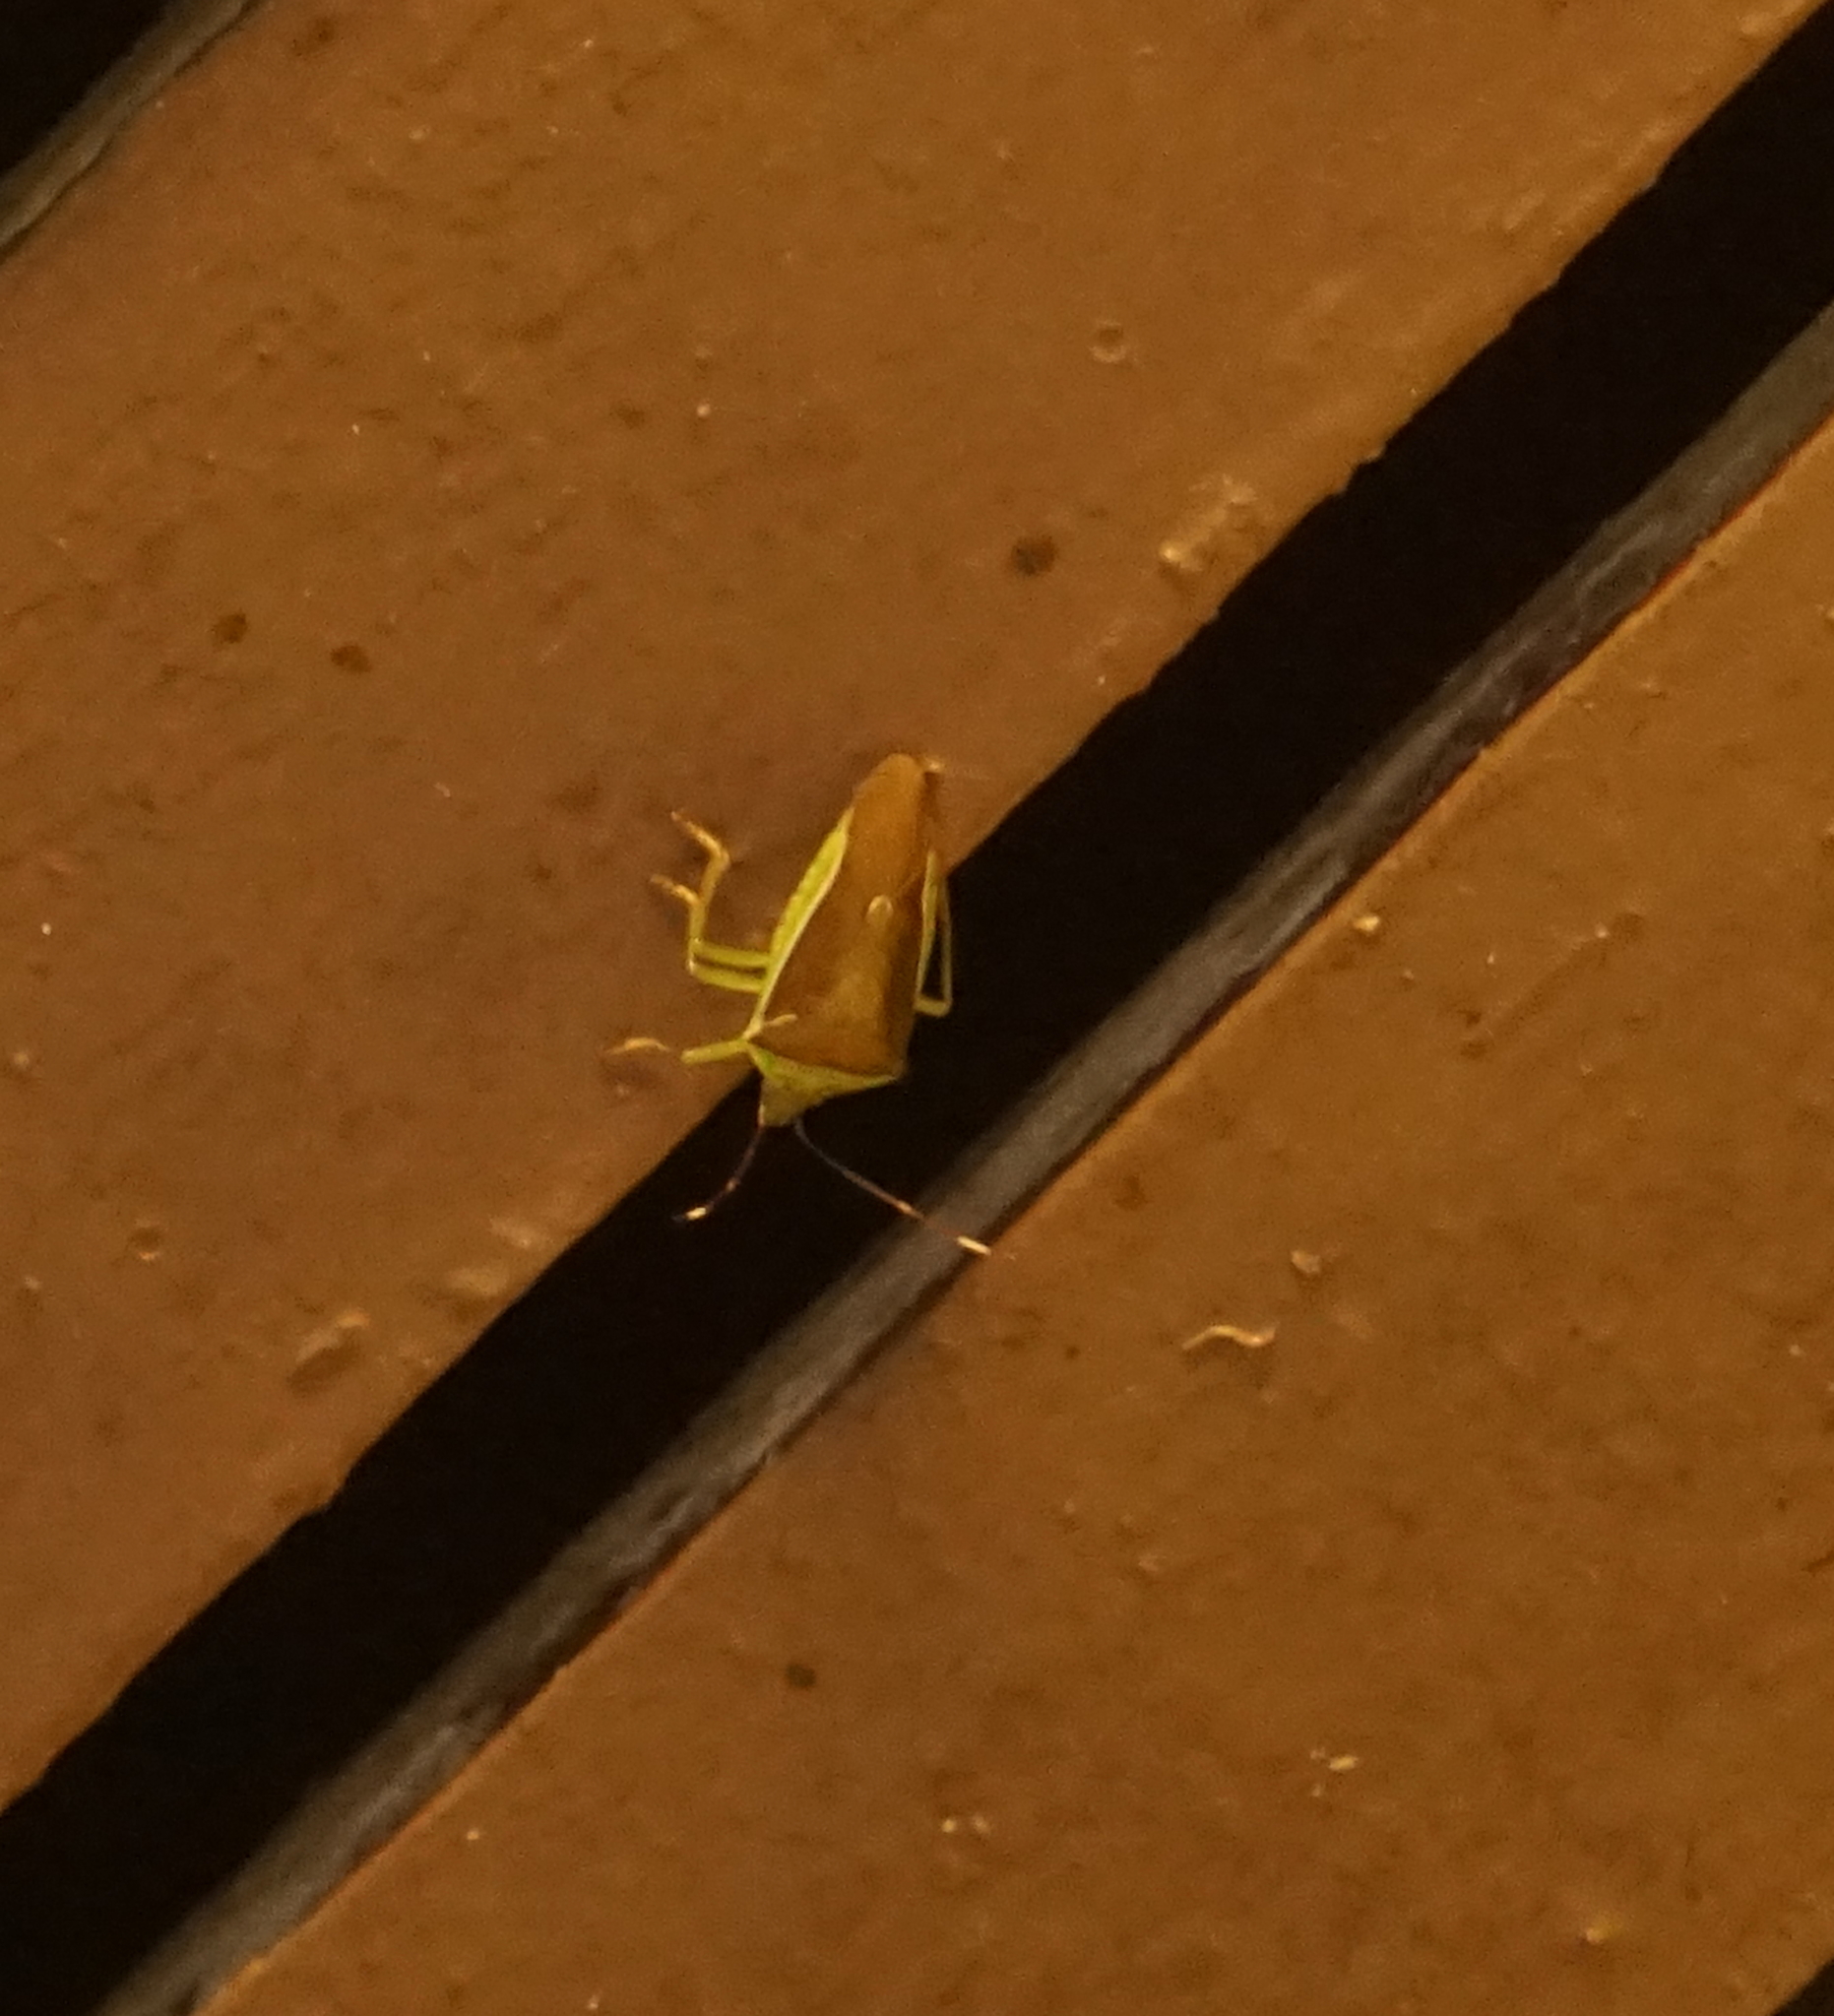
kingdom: Animalia
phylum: Arthropoda
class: Insecta
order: Hemiptera
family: Pentatomidae
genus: Neojurtina
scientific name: Neojurtina typica
